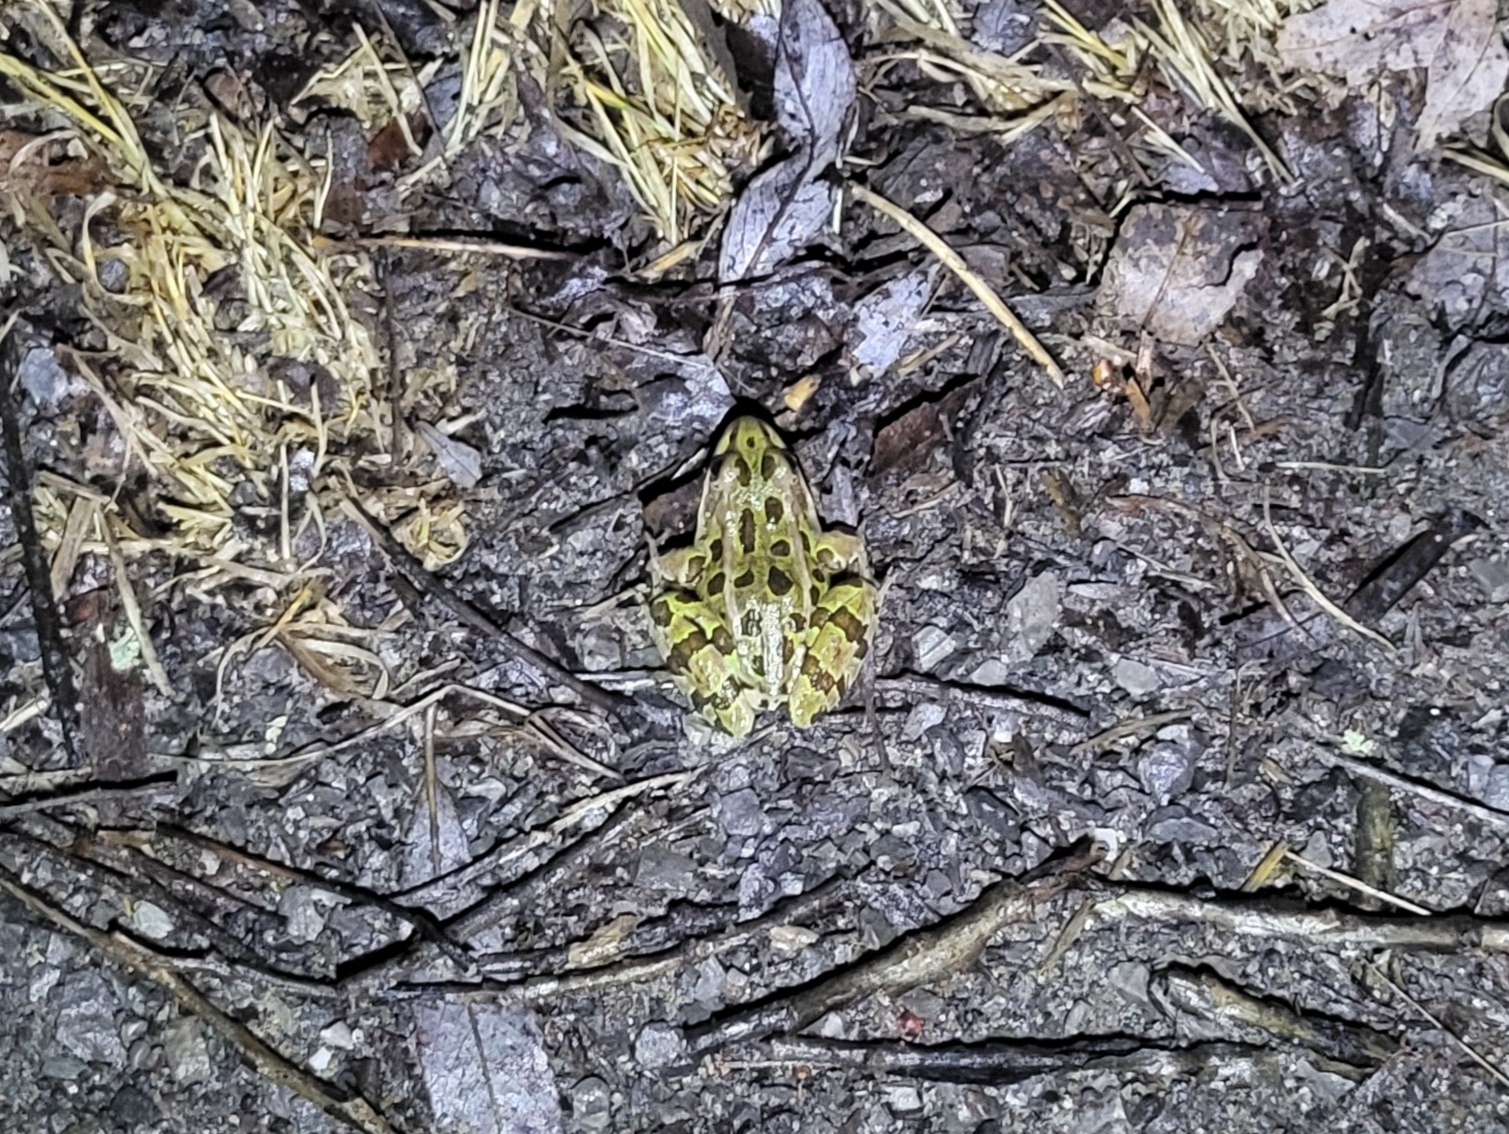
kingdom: Animalia
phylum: Chordata
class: Amphibia
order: Anura
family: Ranidae
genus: Lithobates
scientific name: Lithobates pipiens
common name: Northern leopard frog
